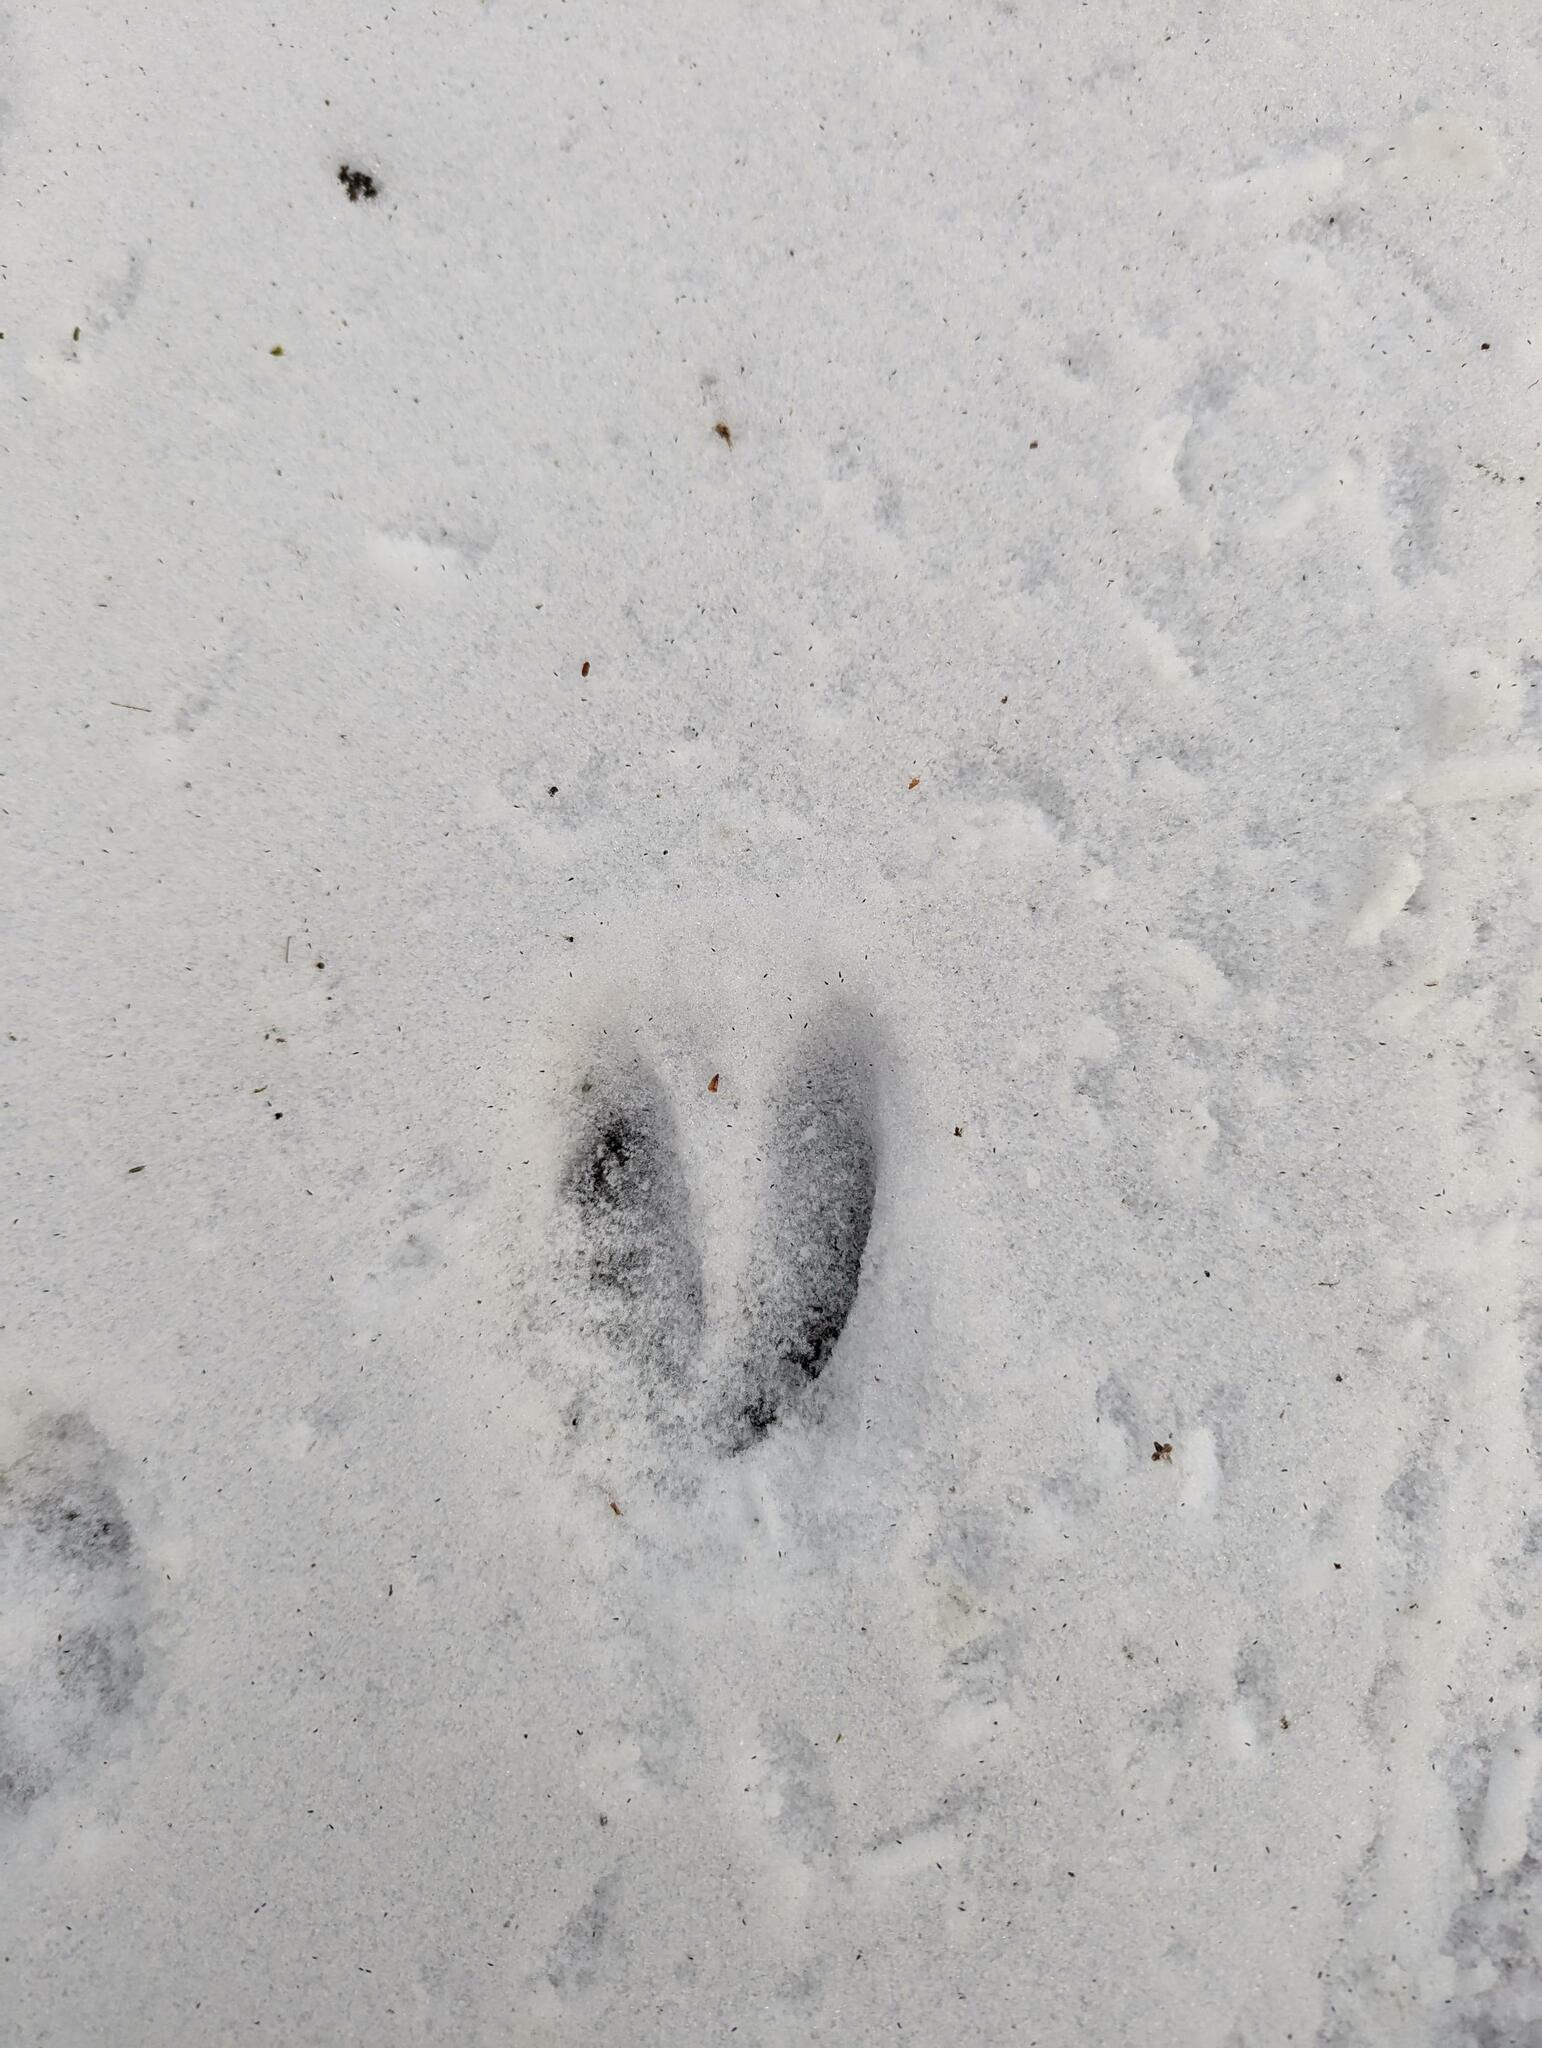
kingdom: Animalia
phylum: Chordata
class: Mammalia
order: Artiodactyla
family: Cervidae
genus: Odocoileus
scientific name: Odocoileus virginianus
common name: White-tailed deer
